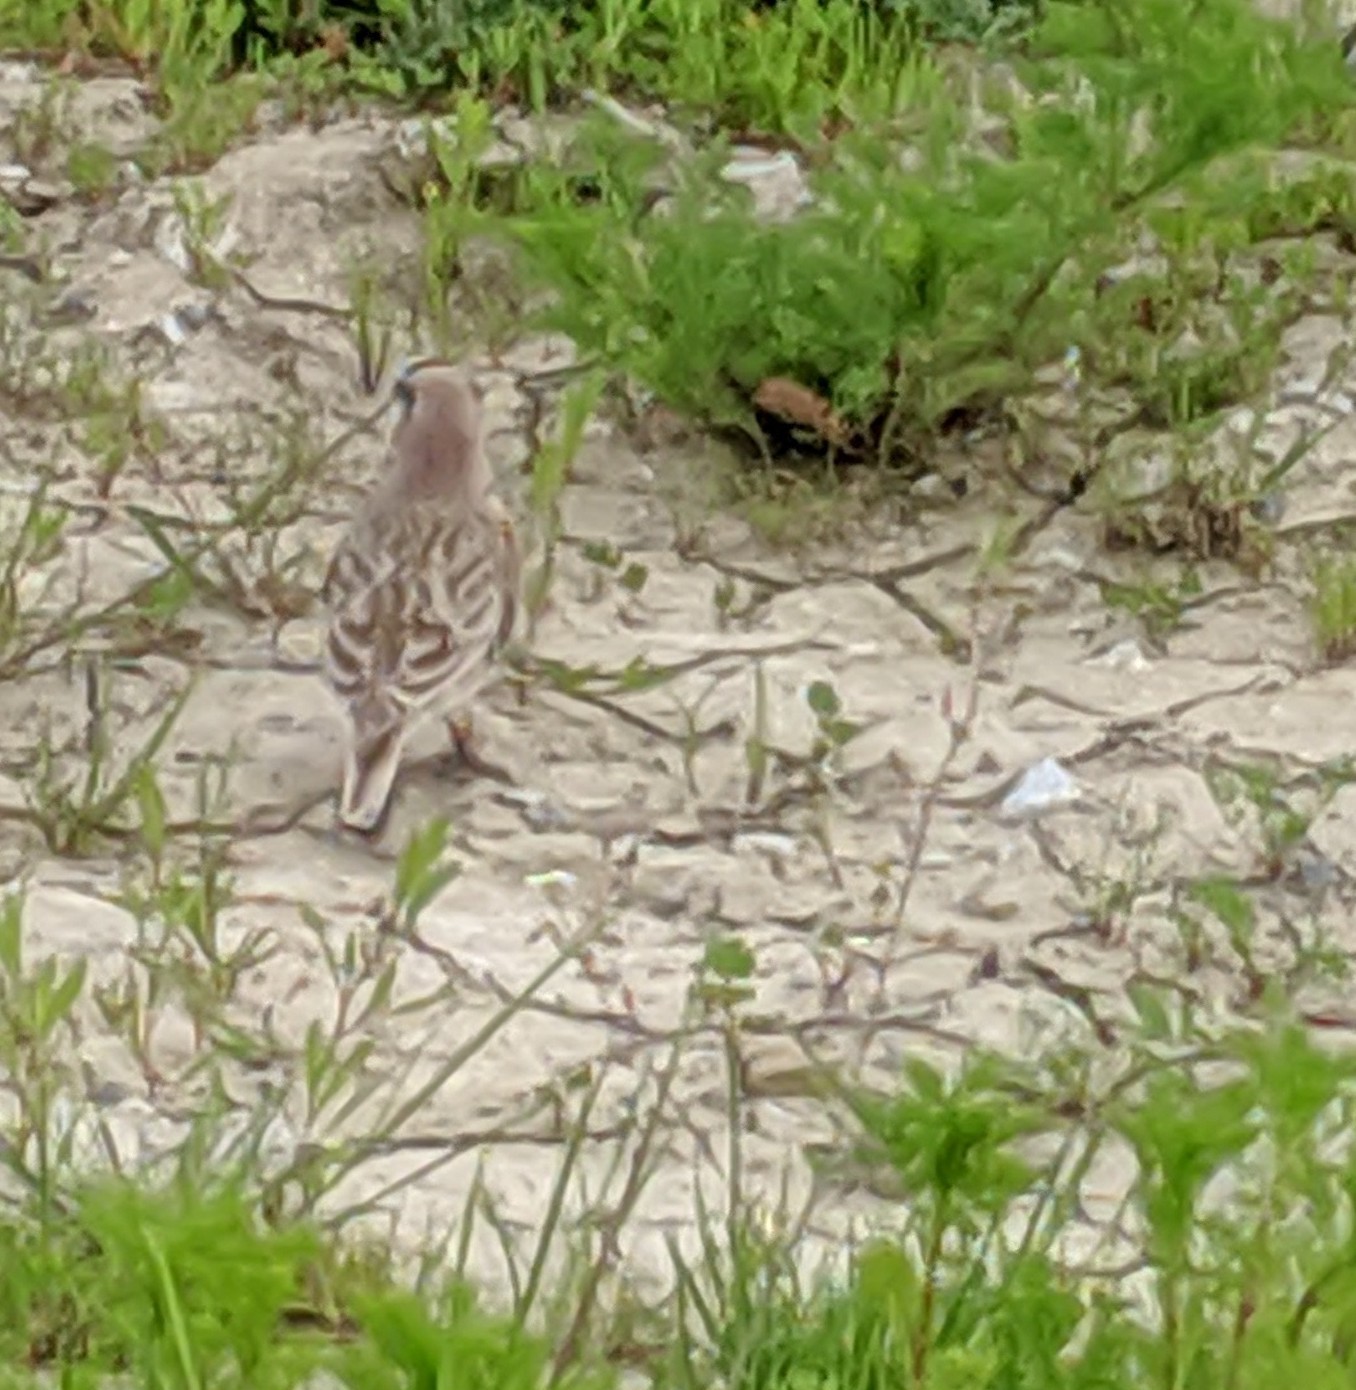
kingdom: Animalia
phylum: Chordata
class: Aves
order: Passeriformes
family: Alaudidae
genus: Eremophila
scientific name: Eremophila alpestris
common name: Horned lark
